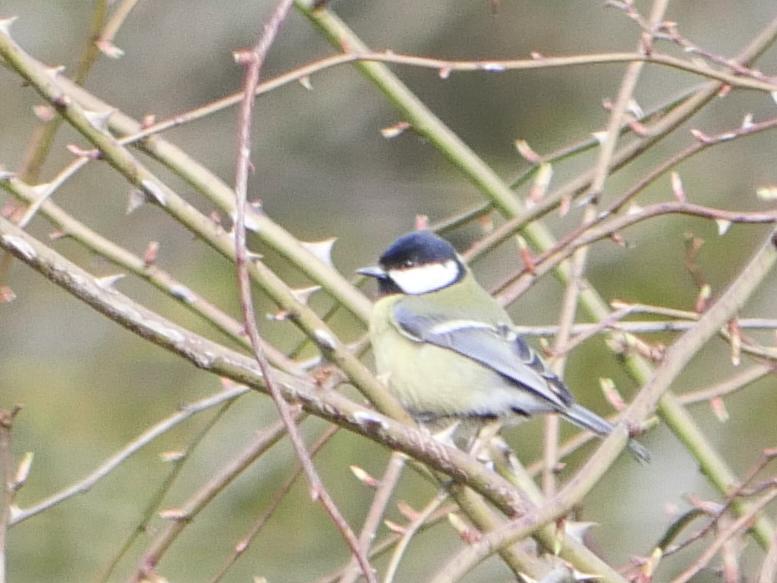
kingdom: Animalia
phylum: Chordata
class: Aves
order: Passeriformes
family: Paridae
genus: Parus
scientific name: Parus major
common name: Great tit
